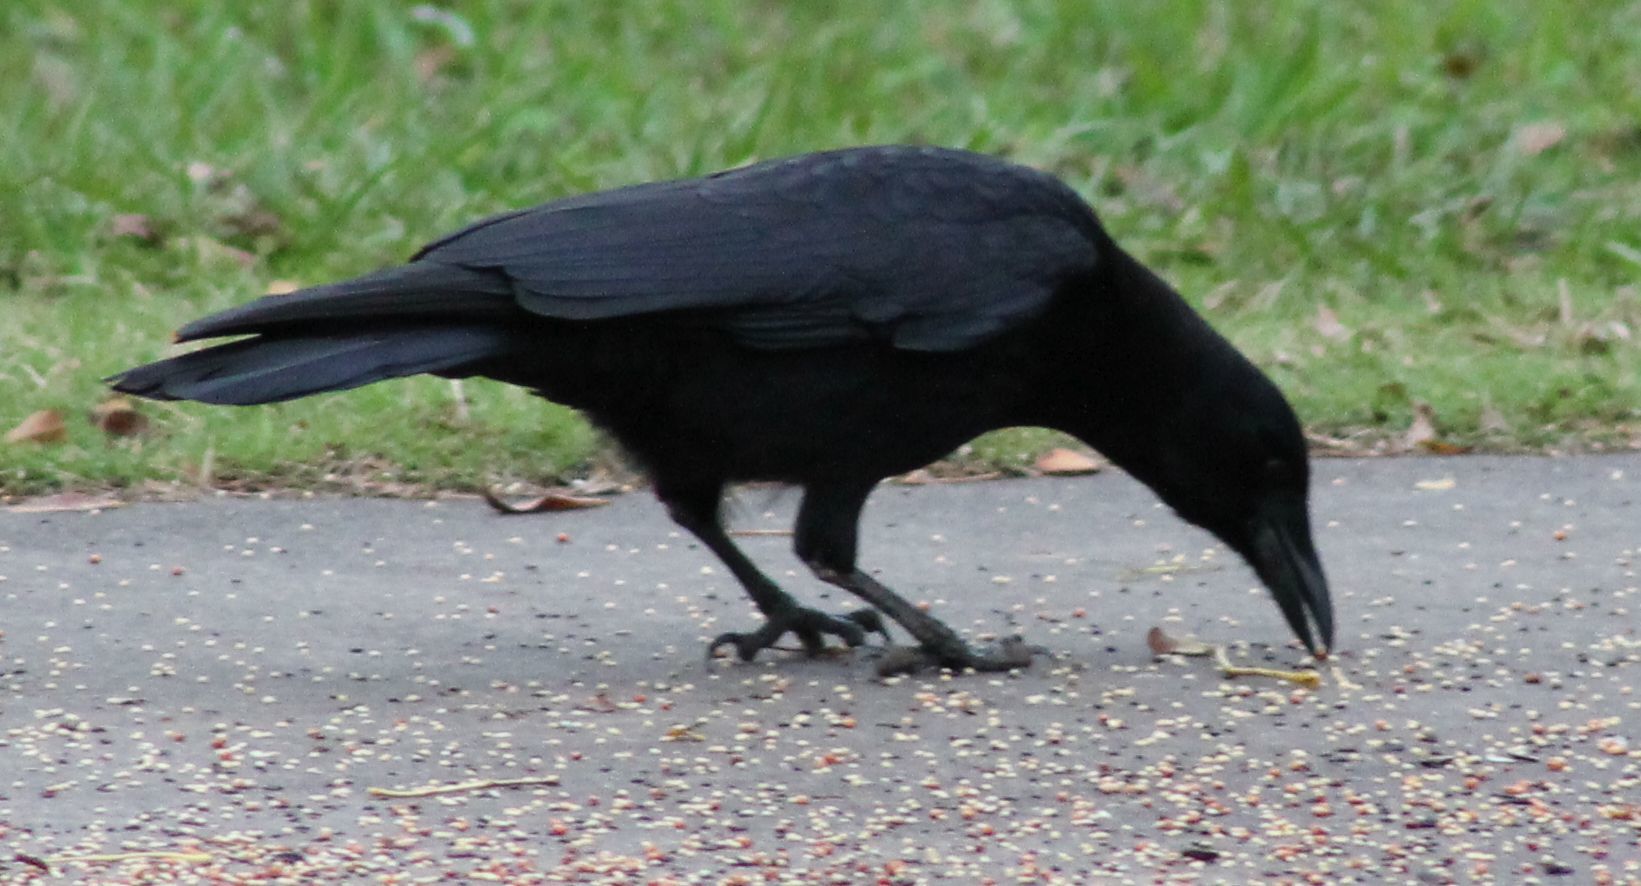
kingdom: Animalia
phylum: Chordata
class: Aves
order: Passeriformes
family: Corvidae
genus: Corvus
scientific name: Corvus brachyrhynchos
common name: American crow
